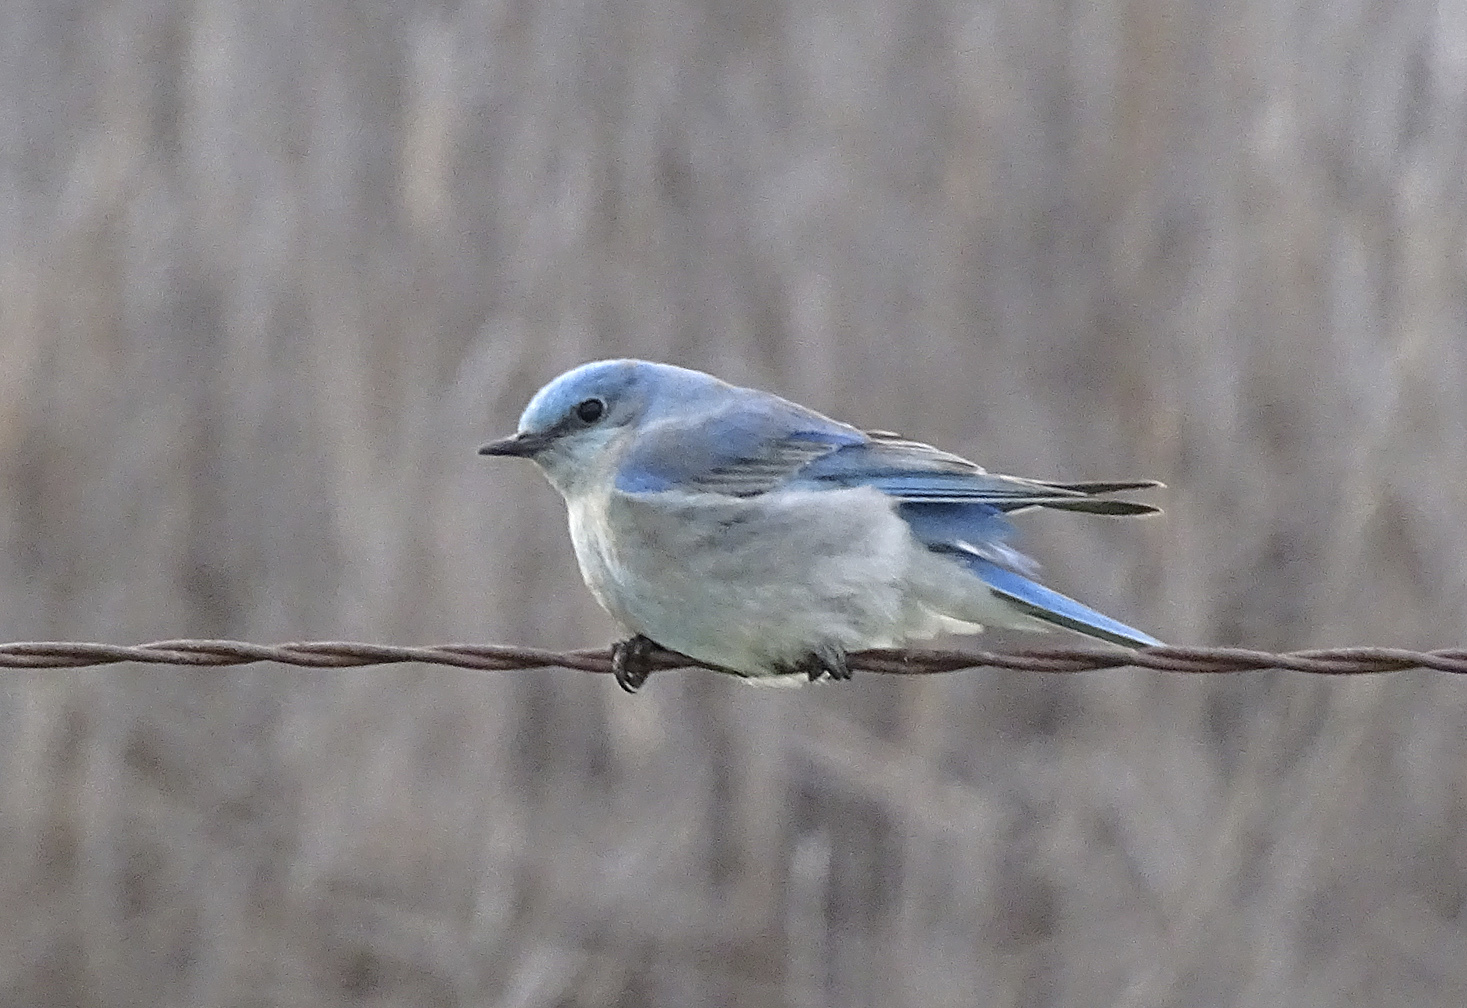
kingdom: Animalia
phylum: Chordata
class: Aves
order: Passeriformes
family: Turdidae
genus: Sialia
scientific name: Sialia currucoides
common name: Mountain bluebird
